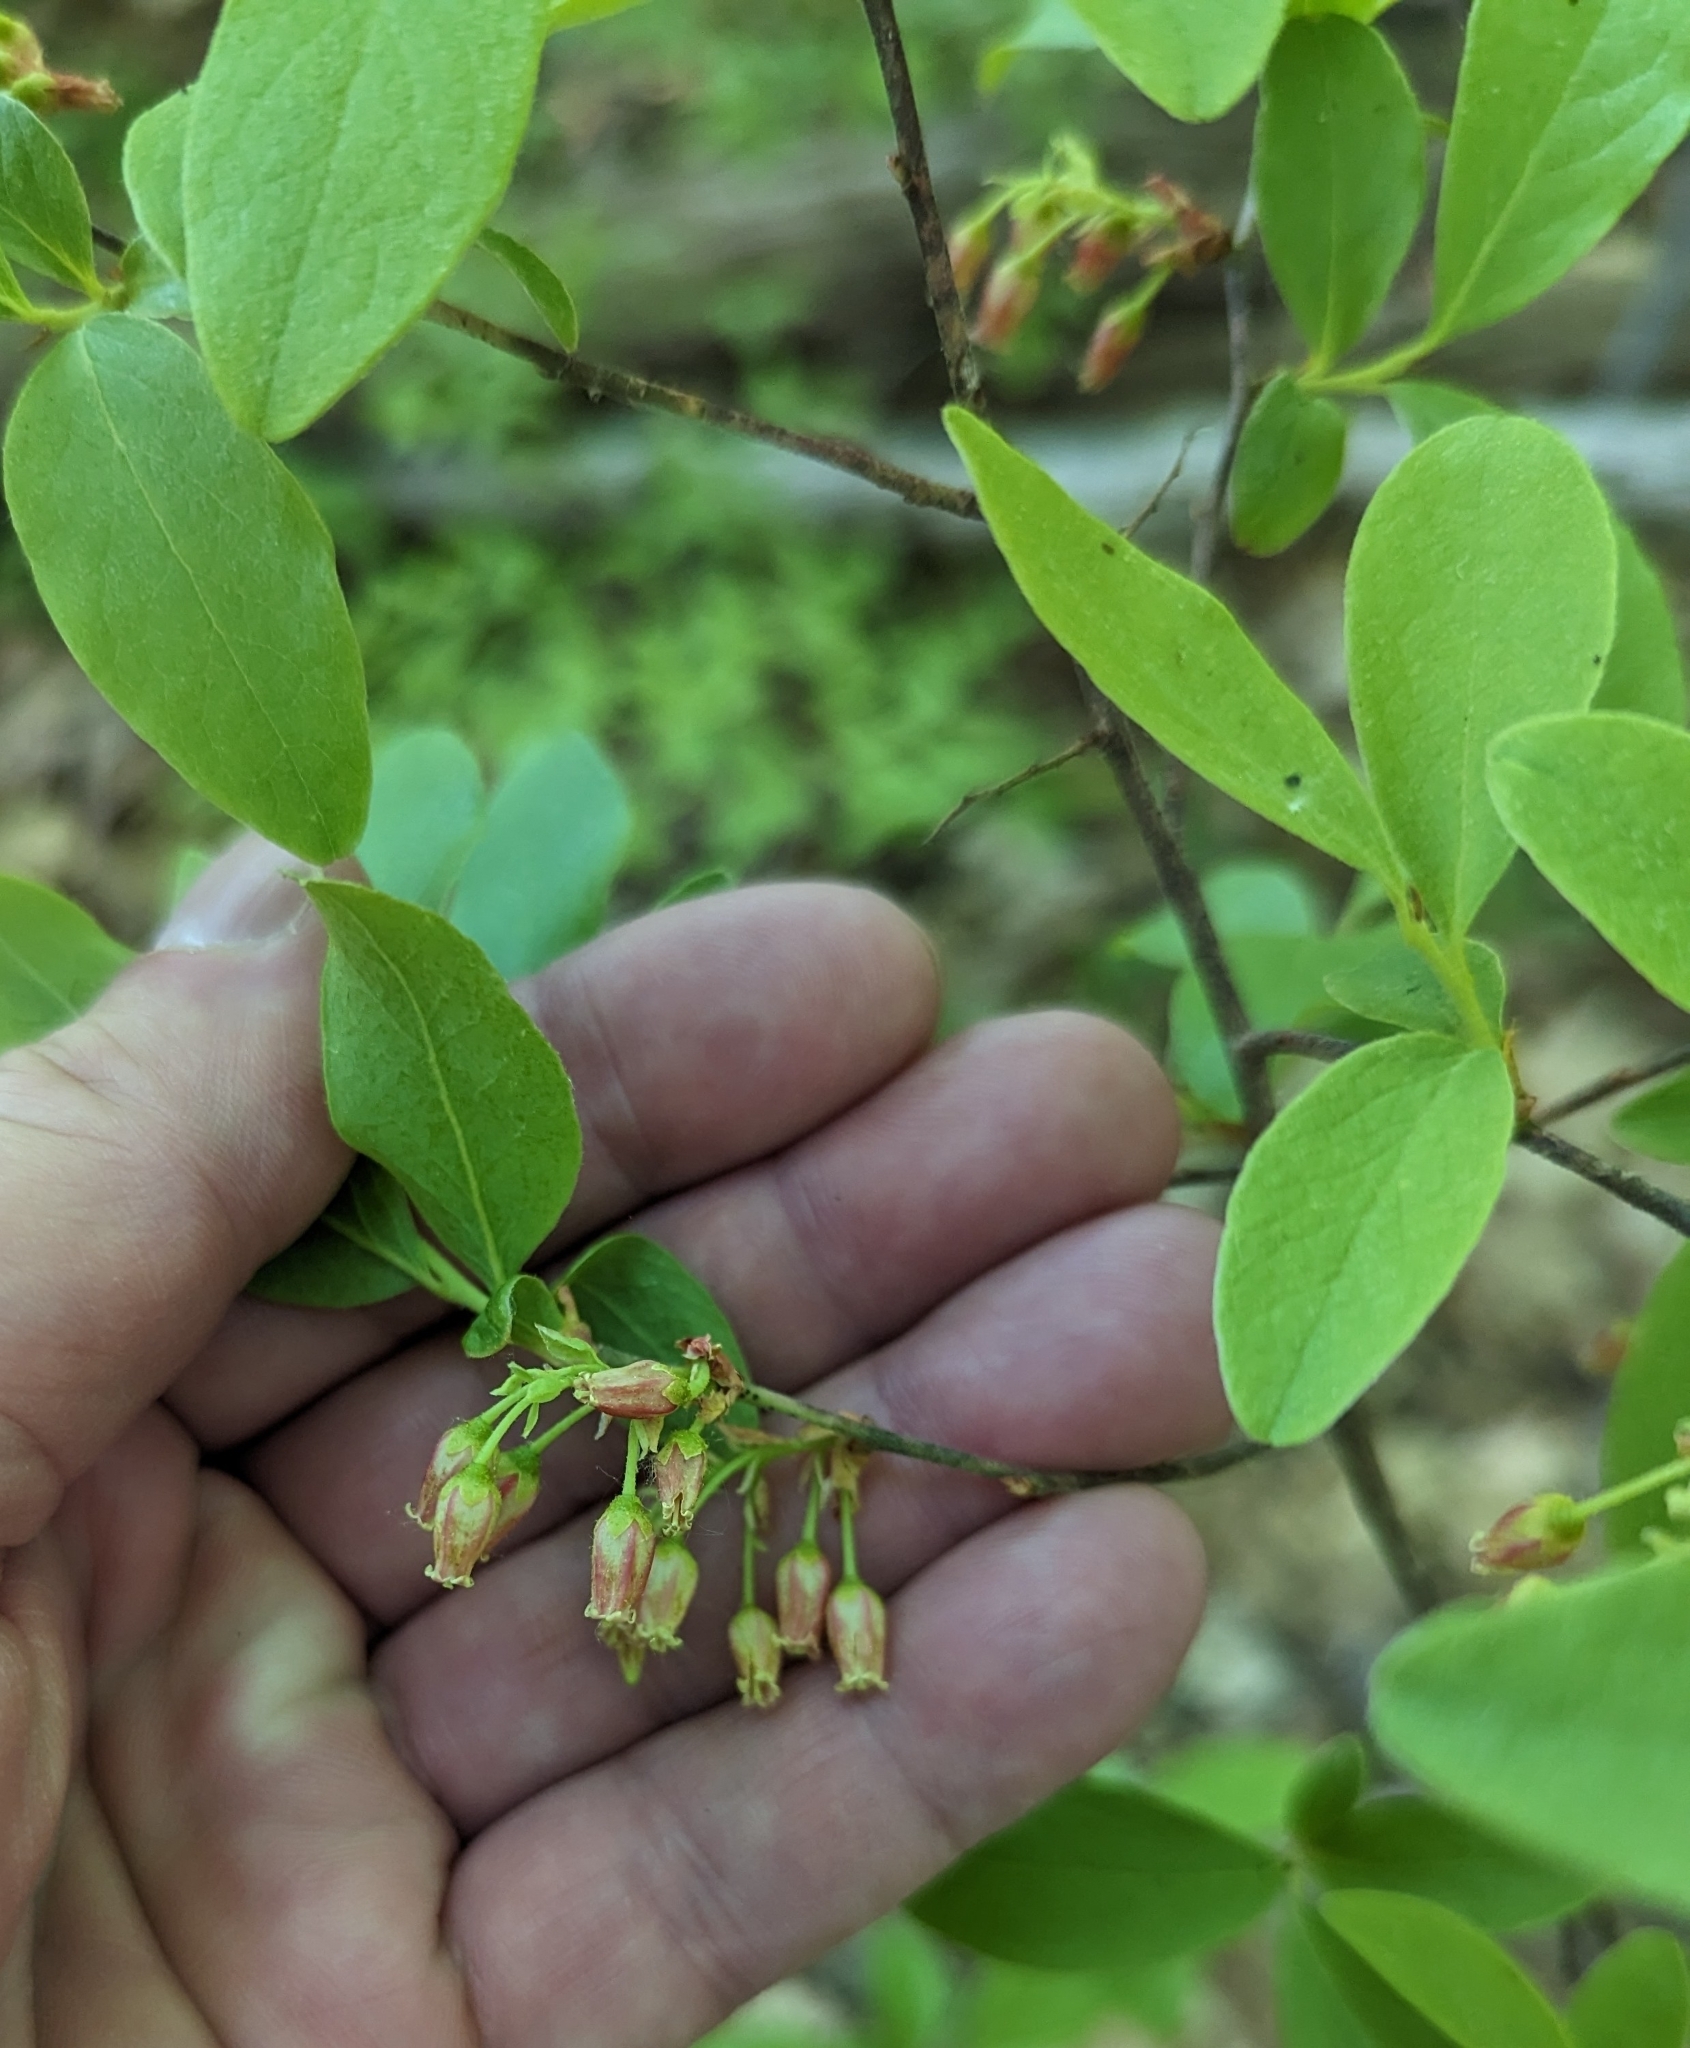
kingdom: Plantae
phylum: Tracheophyta
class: Magnoliopsida
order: Ericales
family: Ericaceae
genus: Gaylussacia
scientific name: Gaylussacia baccata
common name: Black huckleberry
